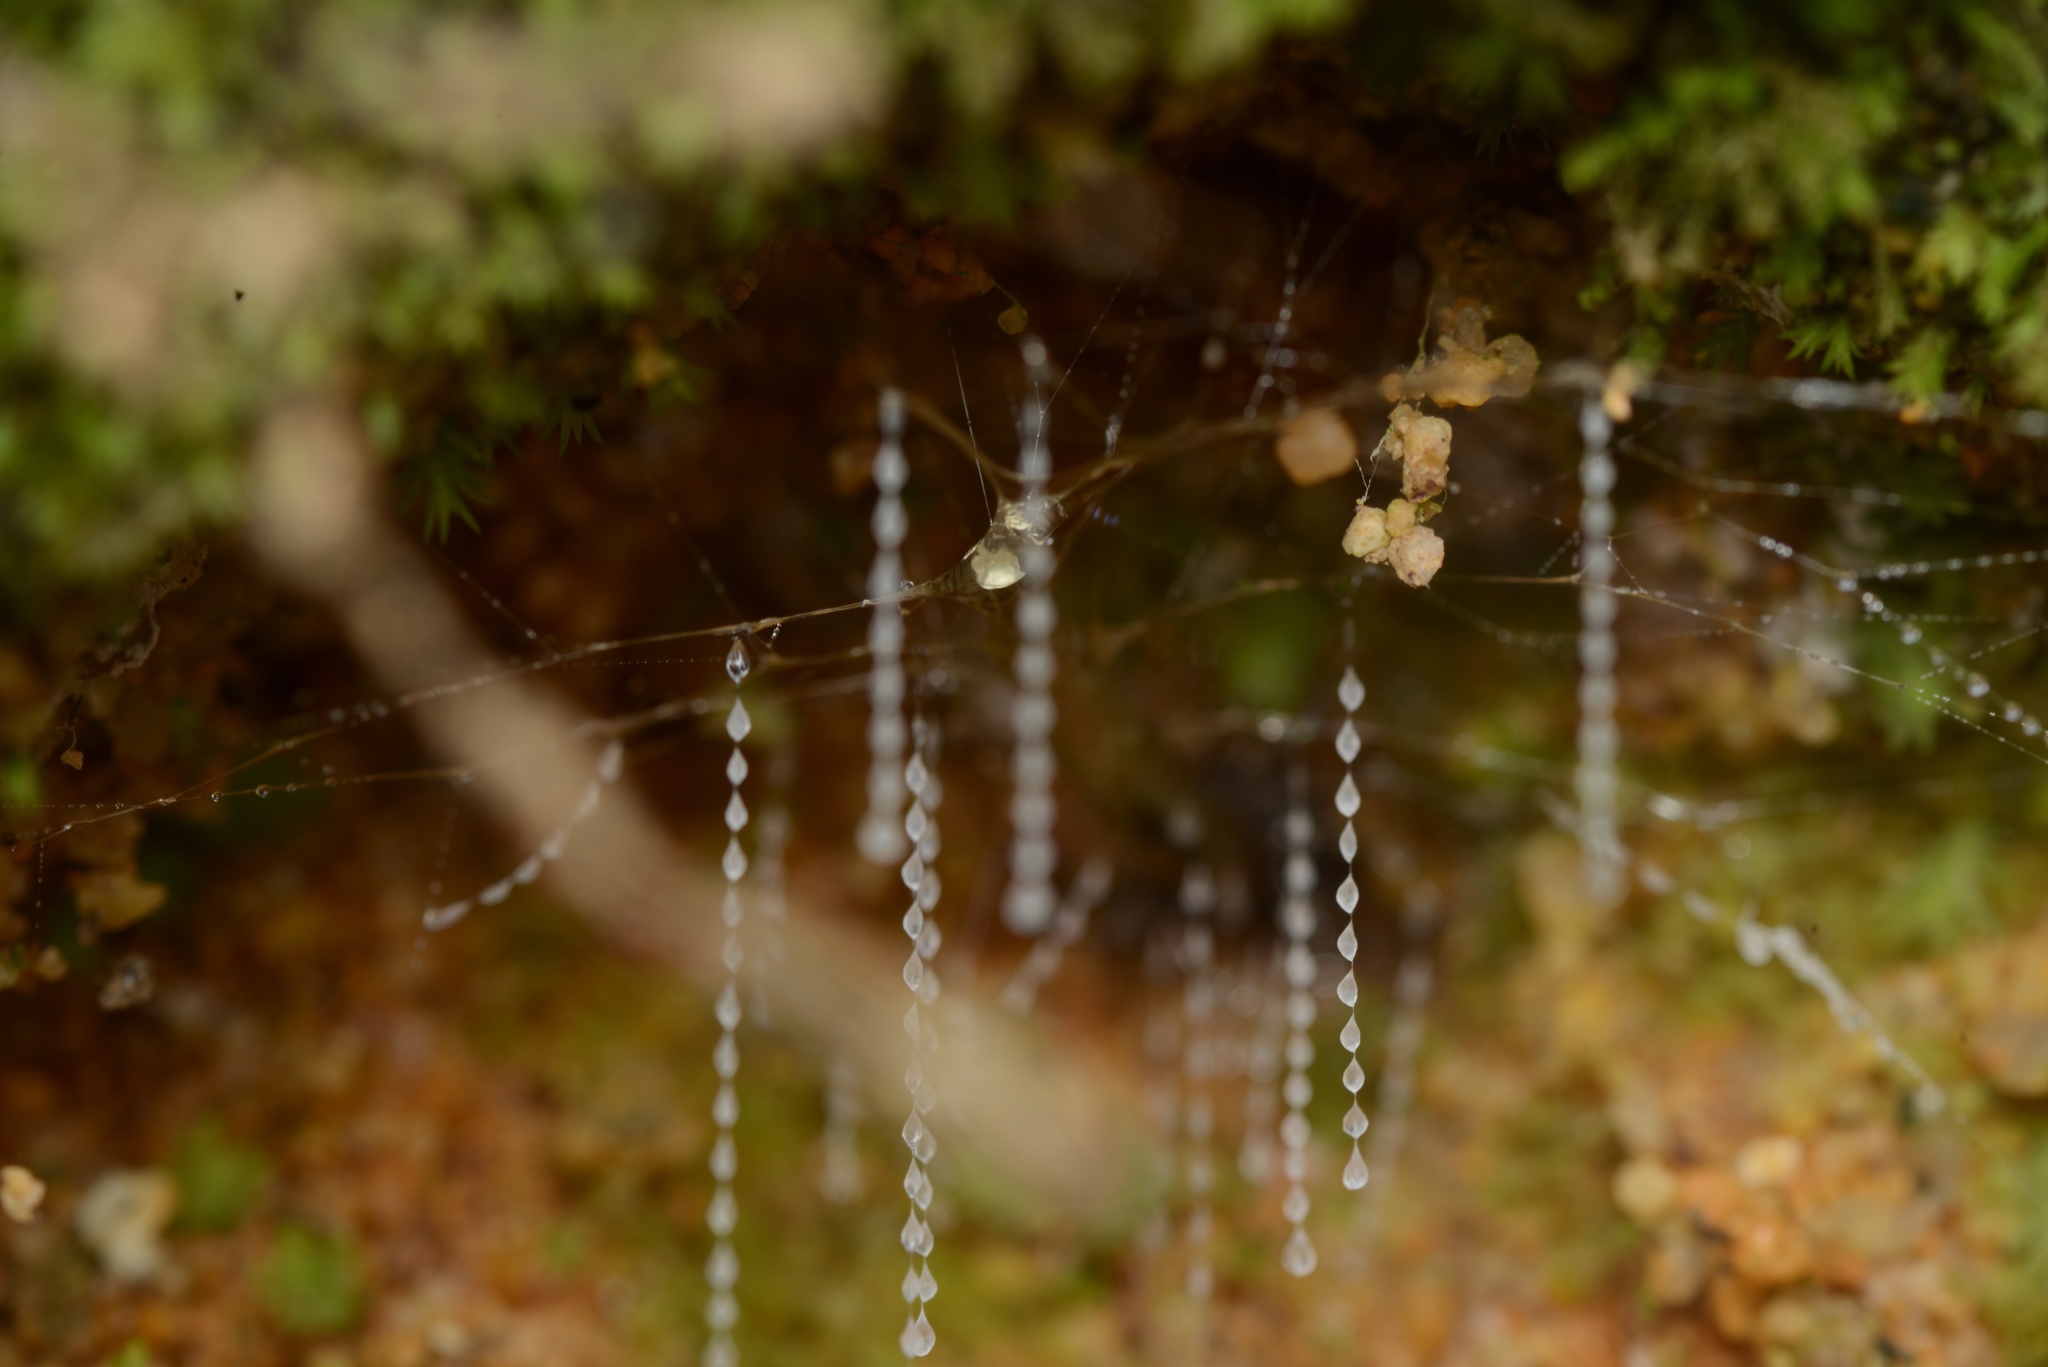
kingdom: Animalia
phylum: Arthropoda
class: Insecta
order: Diptera
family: Keroplatidae
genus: Arachnocampa
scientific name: Arachnocampa luminosa
